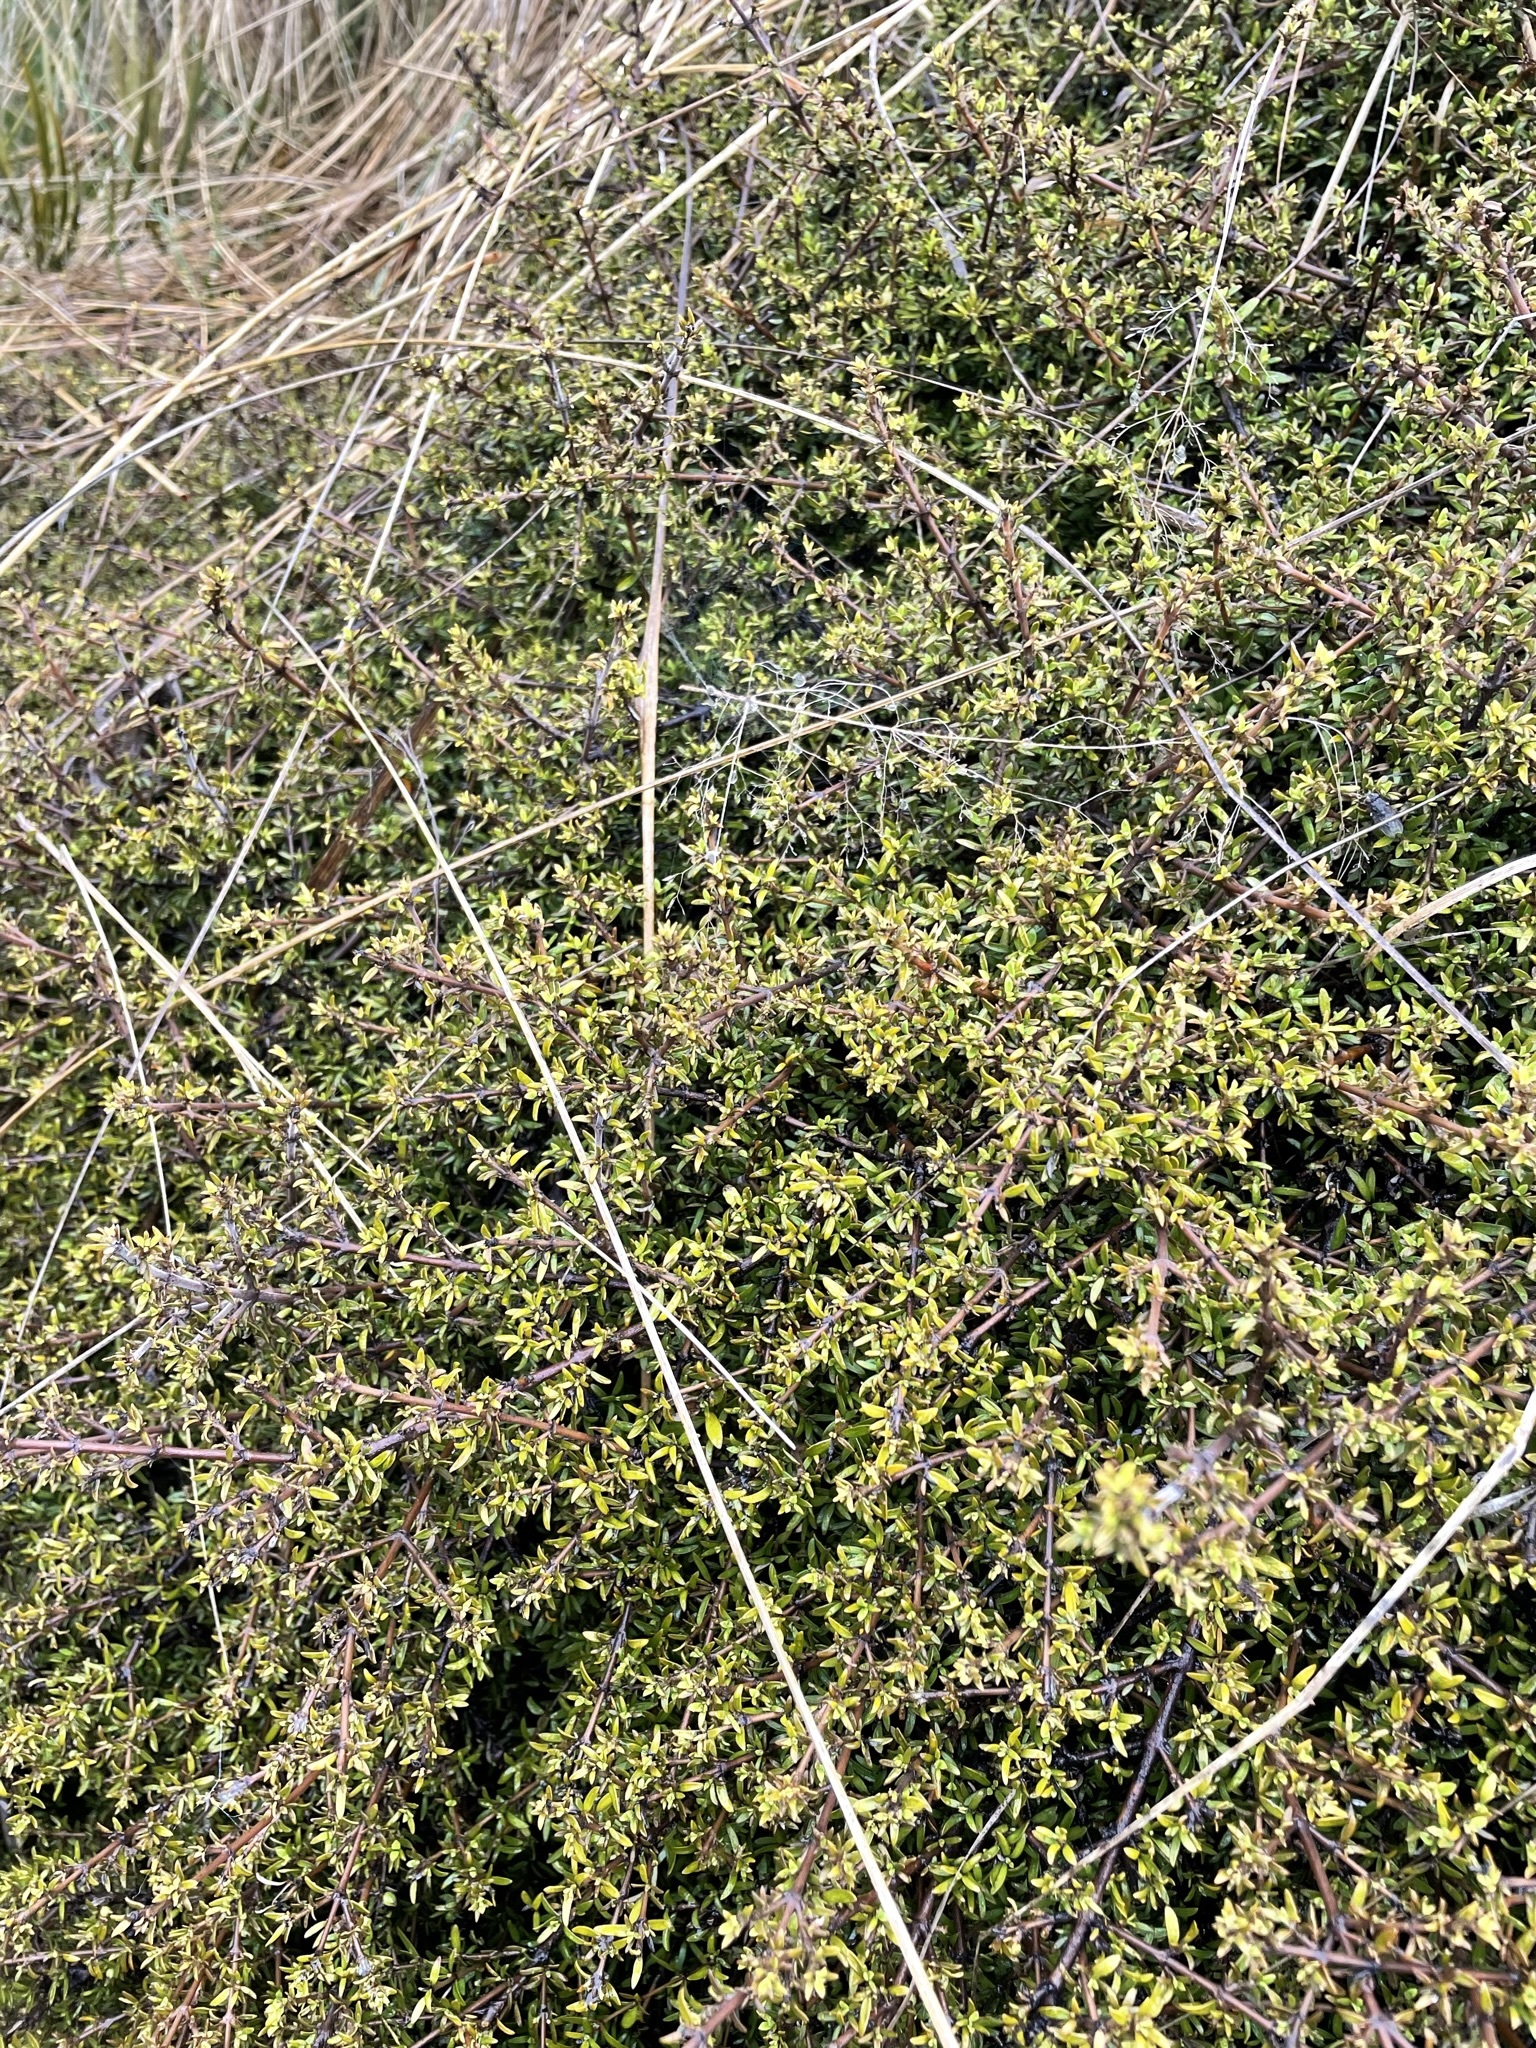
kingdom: Plantae
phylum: Tracheophyta
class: Magnoliopsida
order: Gentianales
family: Rubiaceae
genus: Coprosma
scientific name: Coprosma cheesemanii
